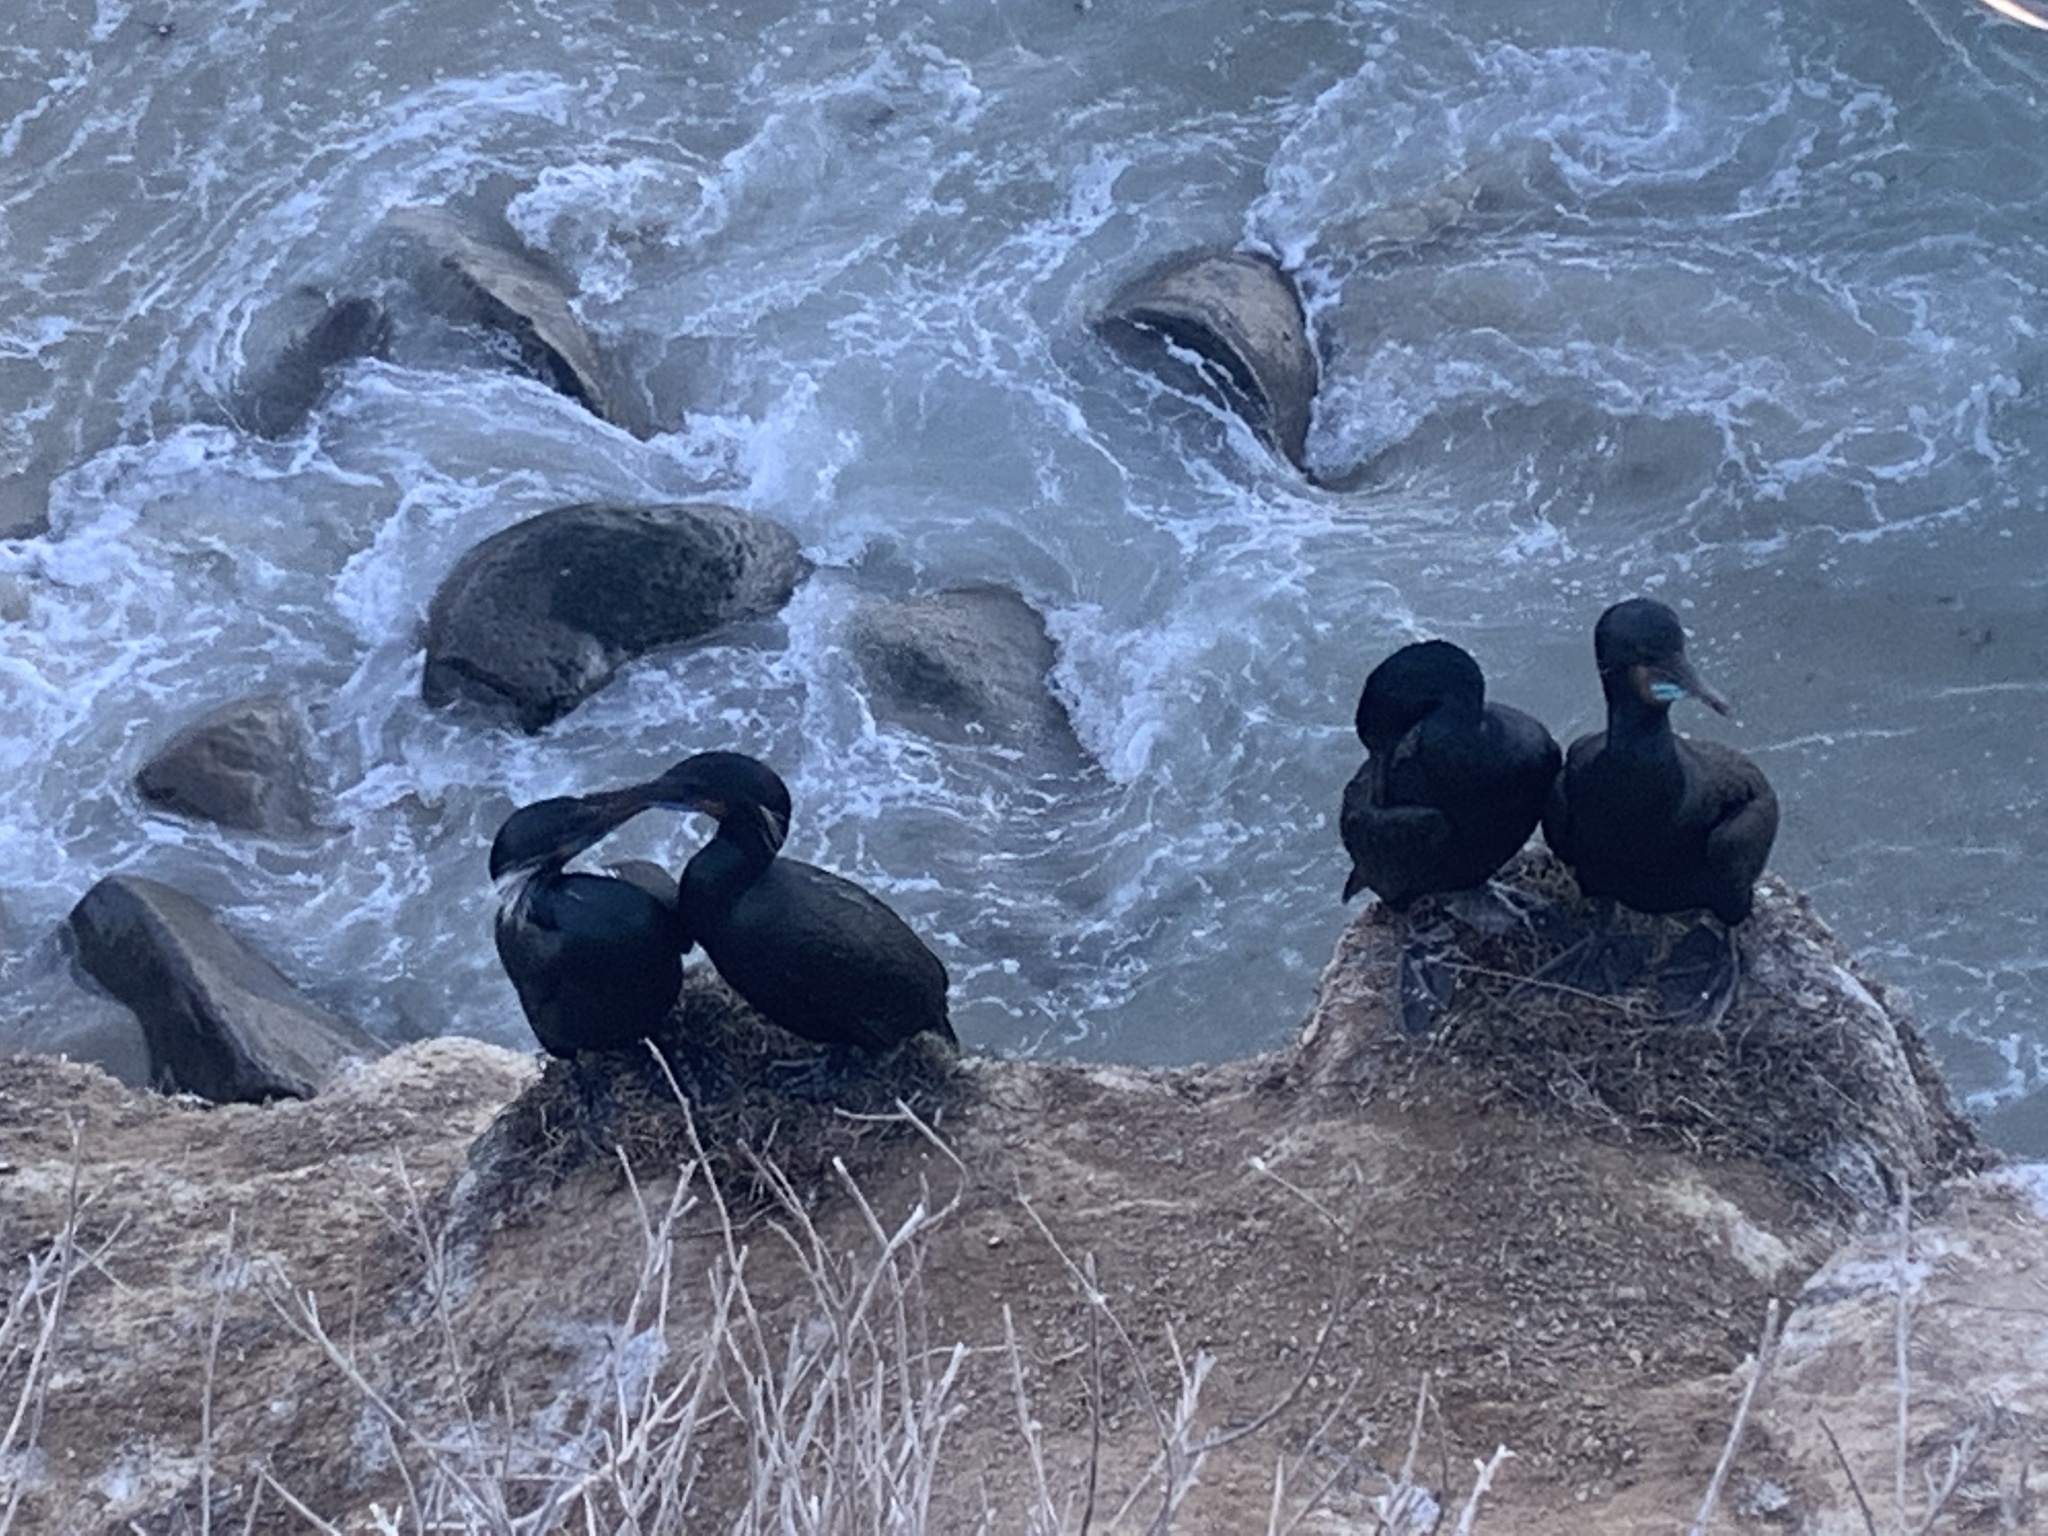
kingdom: Animalia
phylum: Chordata
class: Aves
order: Suliformes
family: Phalacrocoracidae
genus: Urile
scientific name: Urile penicillatus
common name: Brandt's cormorant
